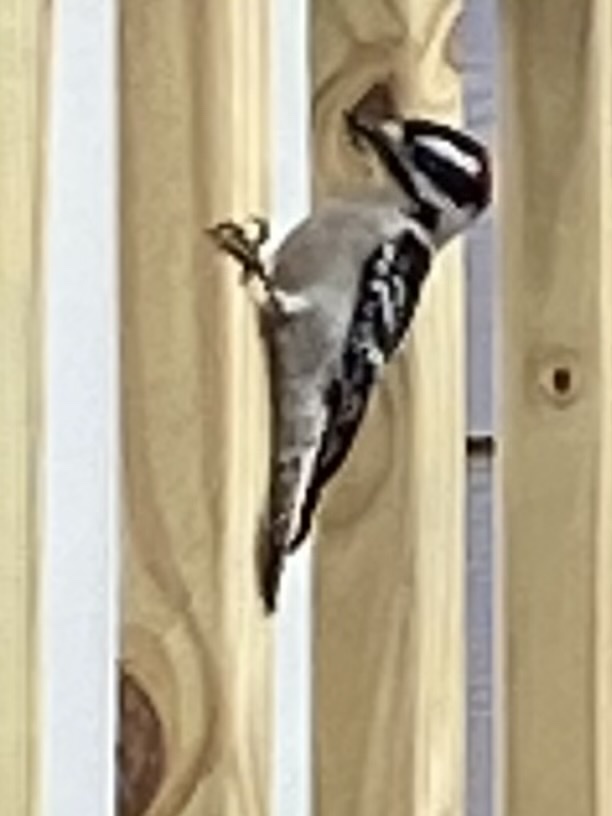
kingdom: Animalia
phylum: Chordata
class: Aves
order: Piciformes
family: Picidae
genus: Dryobates
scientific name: Dryobates pubescens
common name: Downy woodpecker
